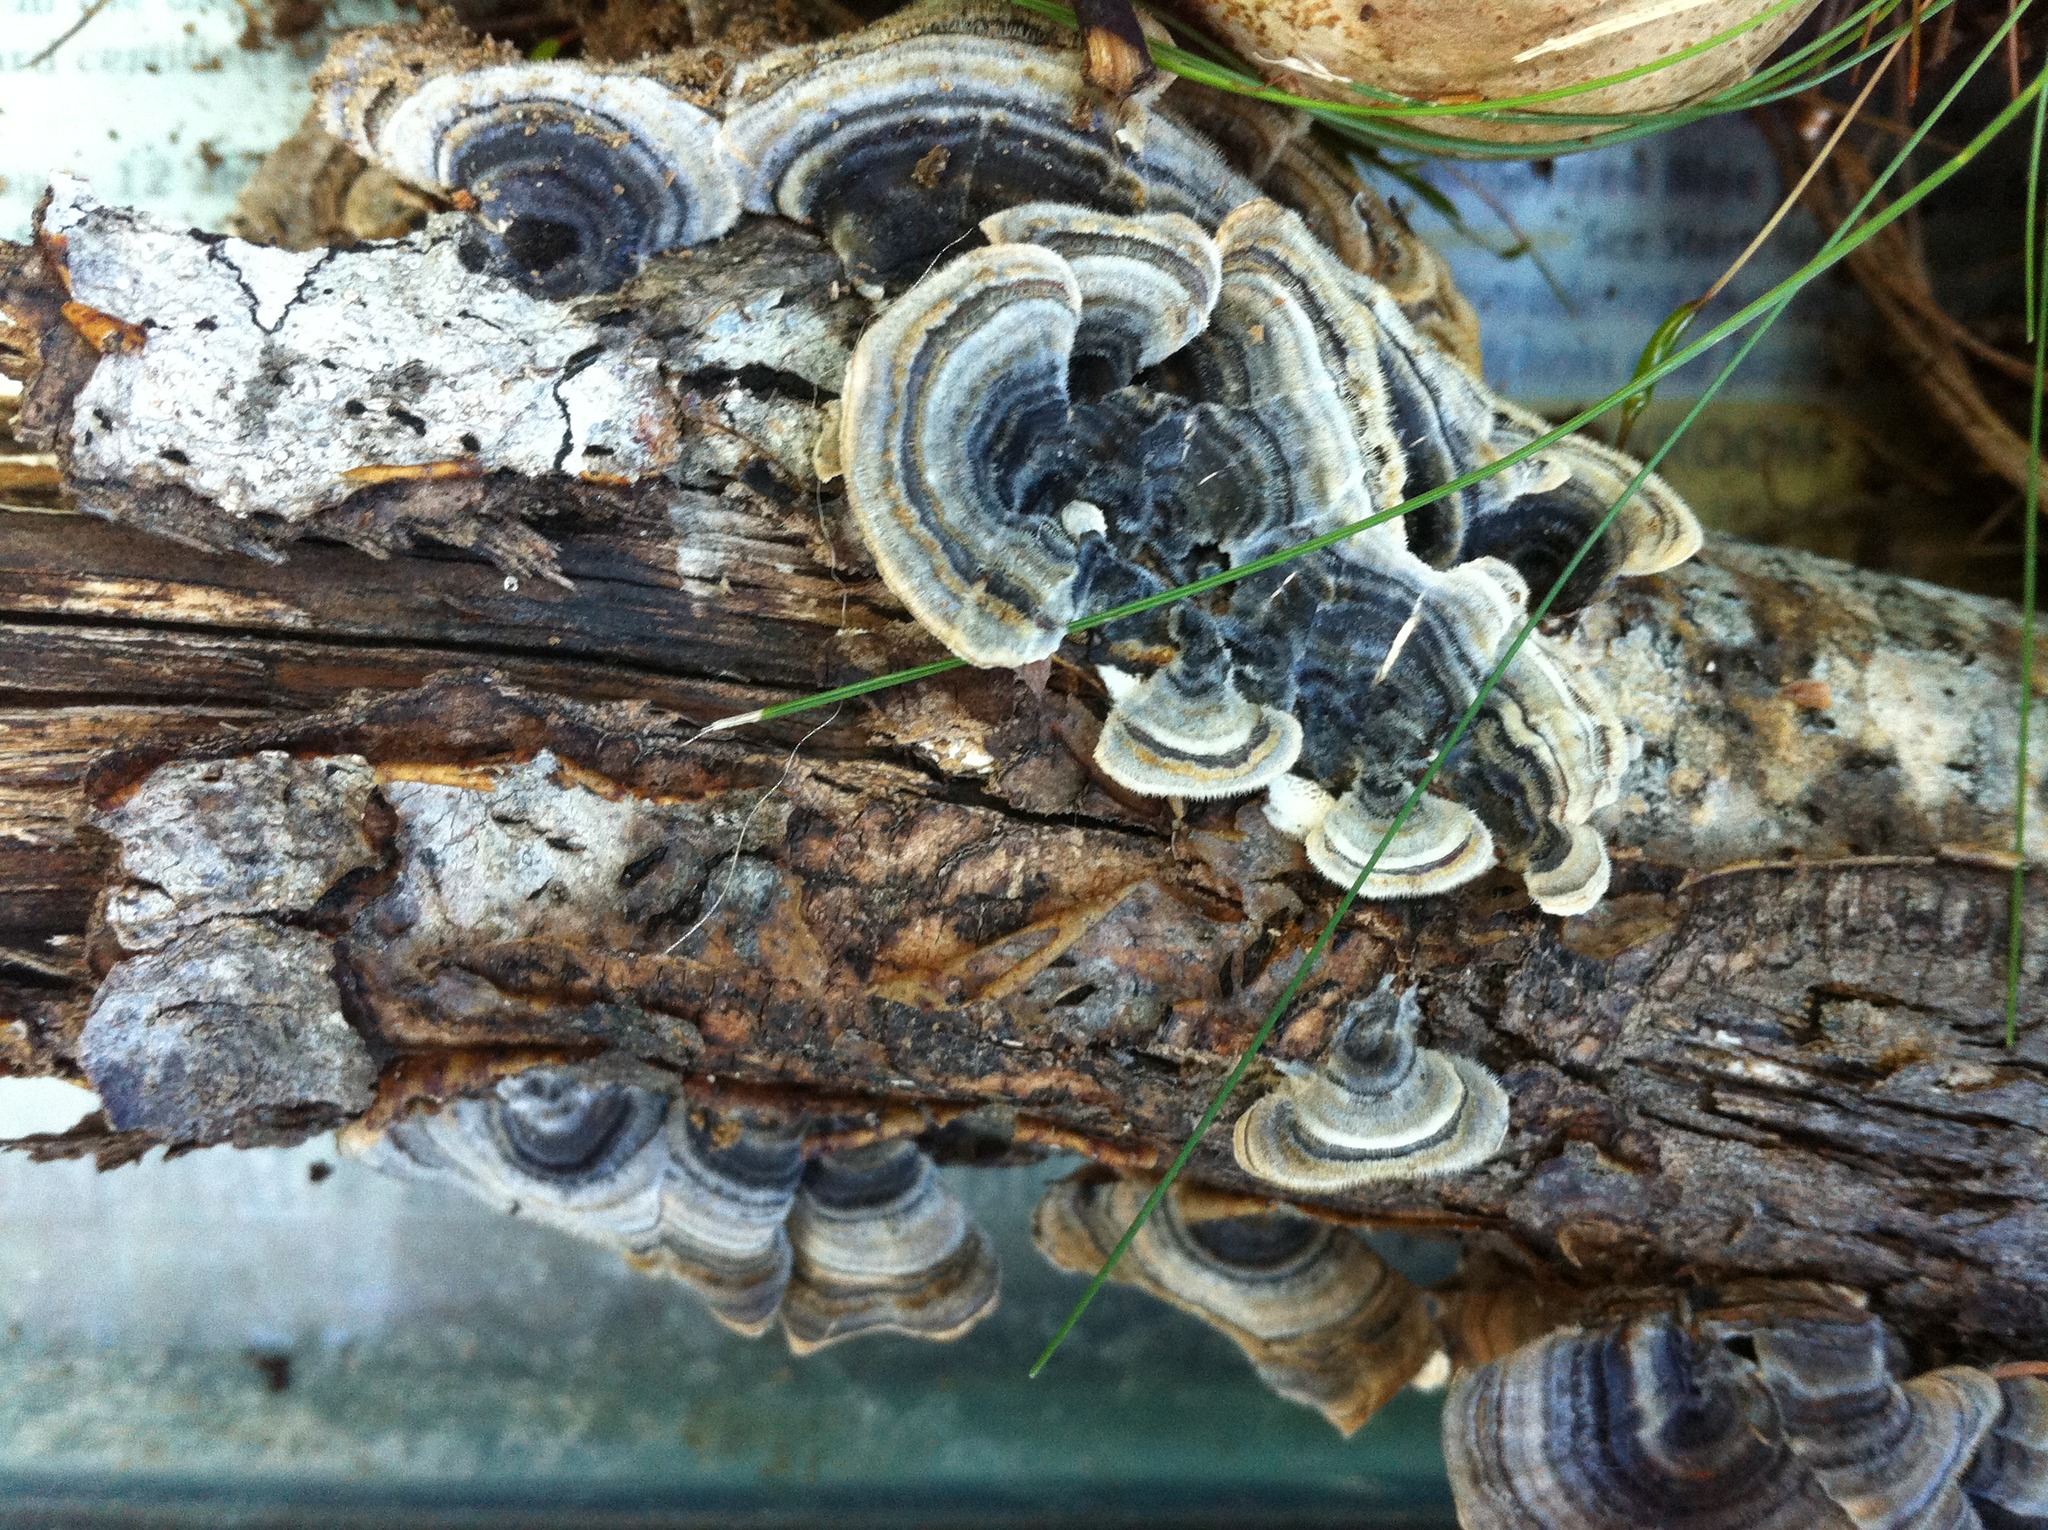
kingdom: Fungi
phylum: Basidiomycota
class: Agaricomycetes
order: Polyporales
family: Polyporaceae
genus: Trametes
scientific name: Trametes versicolor
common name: Turkeytail
